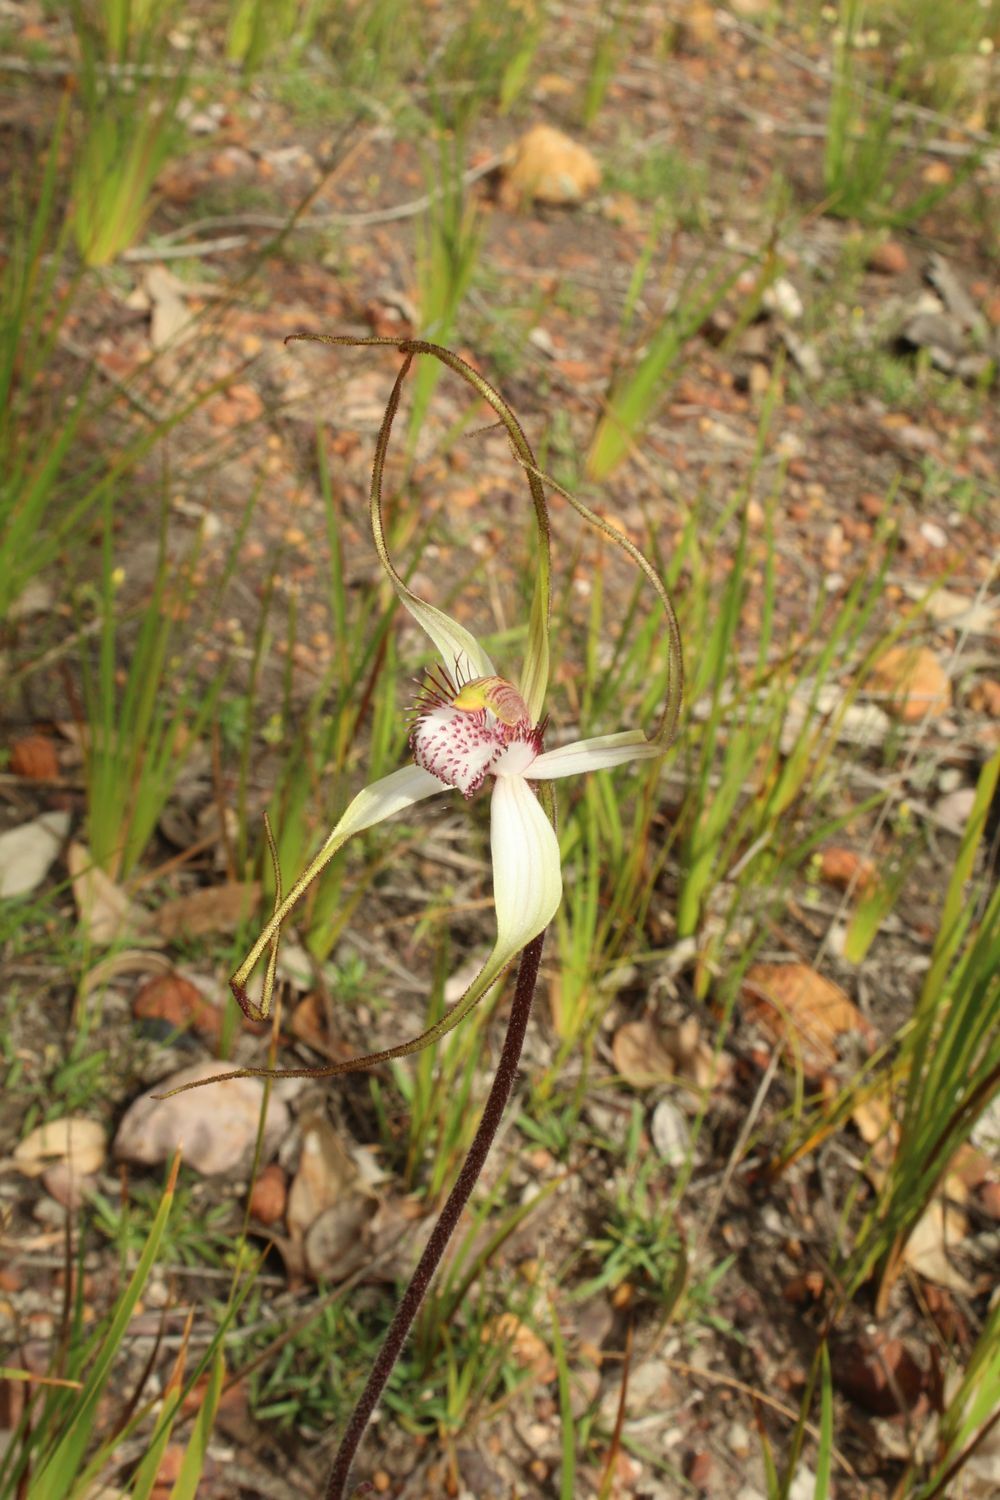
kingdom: Plantae
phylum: Tracheophyta
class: Liliopsida
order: Asparagales
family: Orchidaceae
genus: Caladenia
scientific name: Caladenia longicauda
